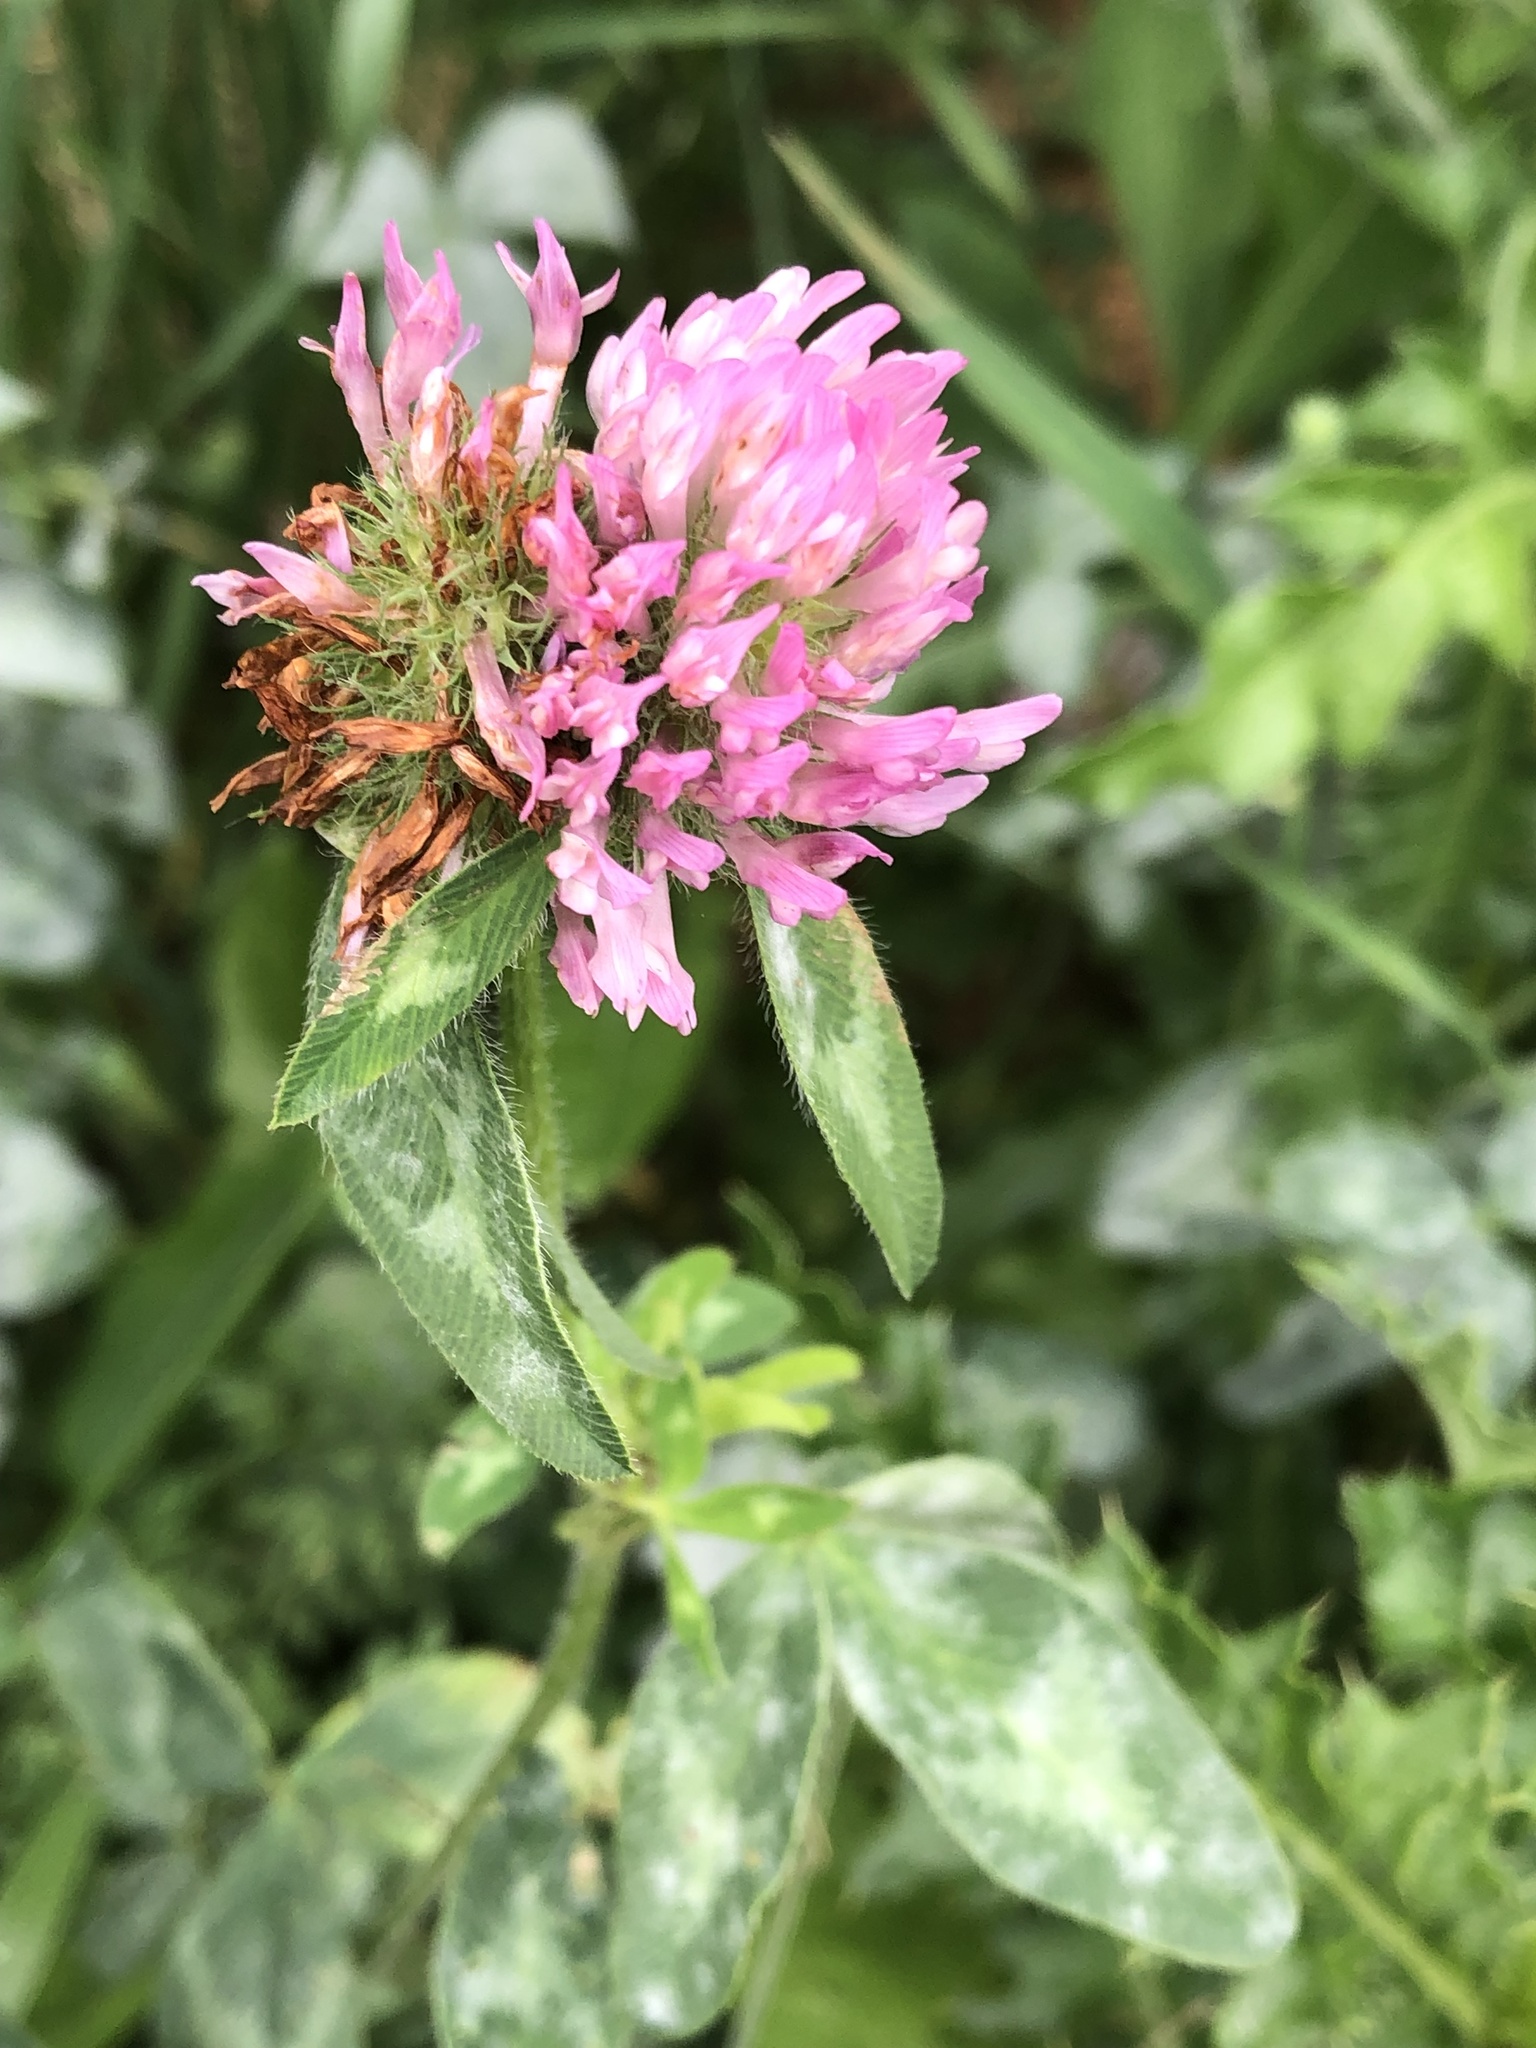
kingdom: Plantae
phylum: Tracheophyta
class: Magnoliopsida
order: Fabales
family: Fabaceae
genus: Trifolium
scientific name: Trifolium pratense
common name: Red clover
